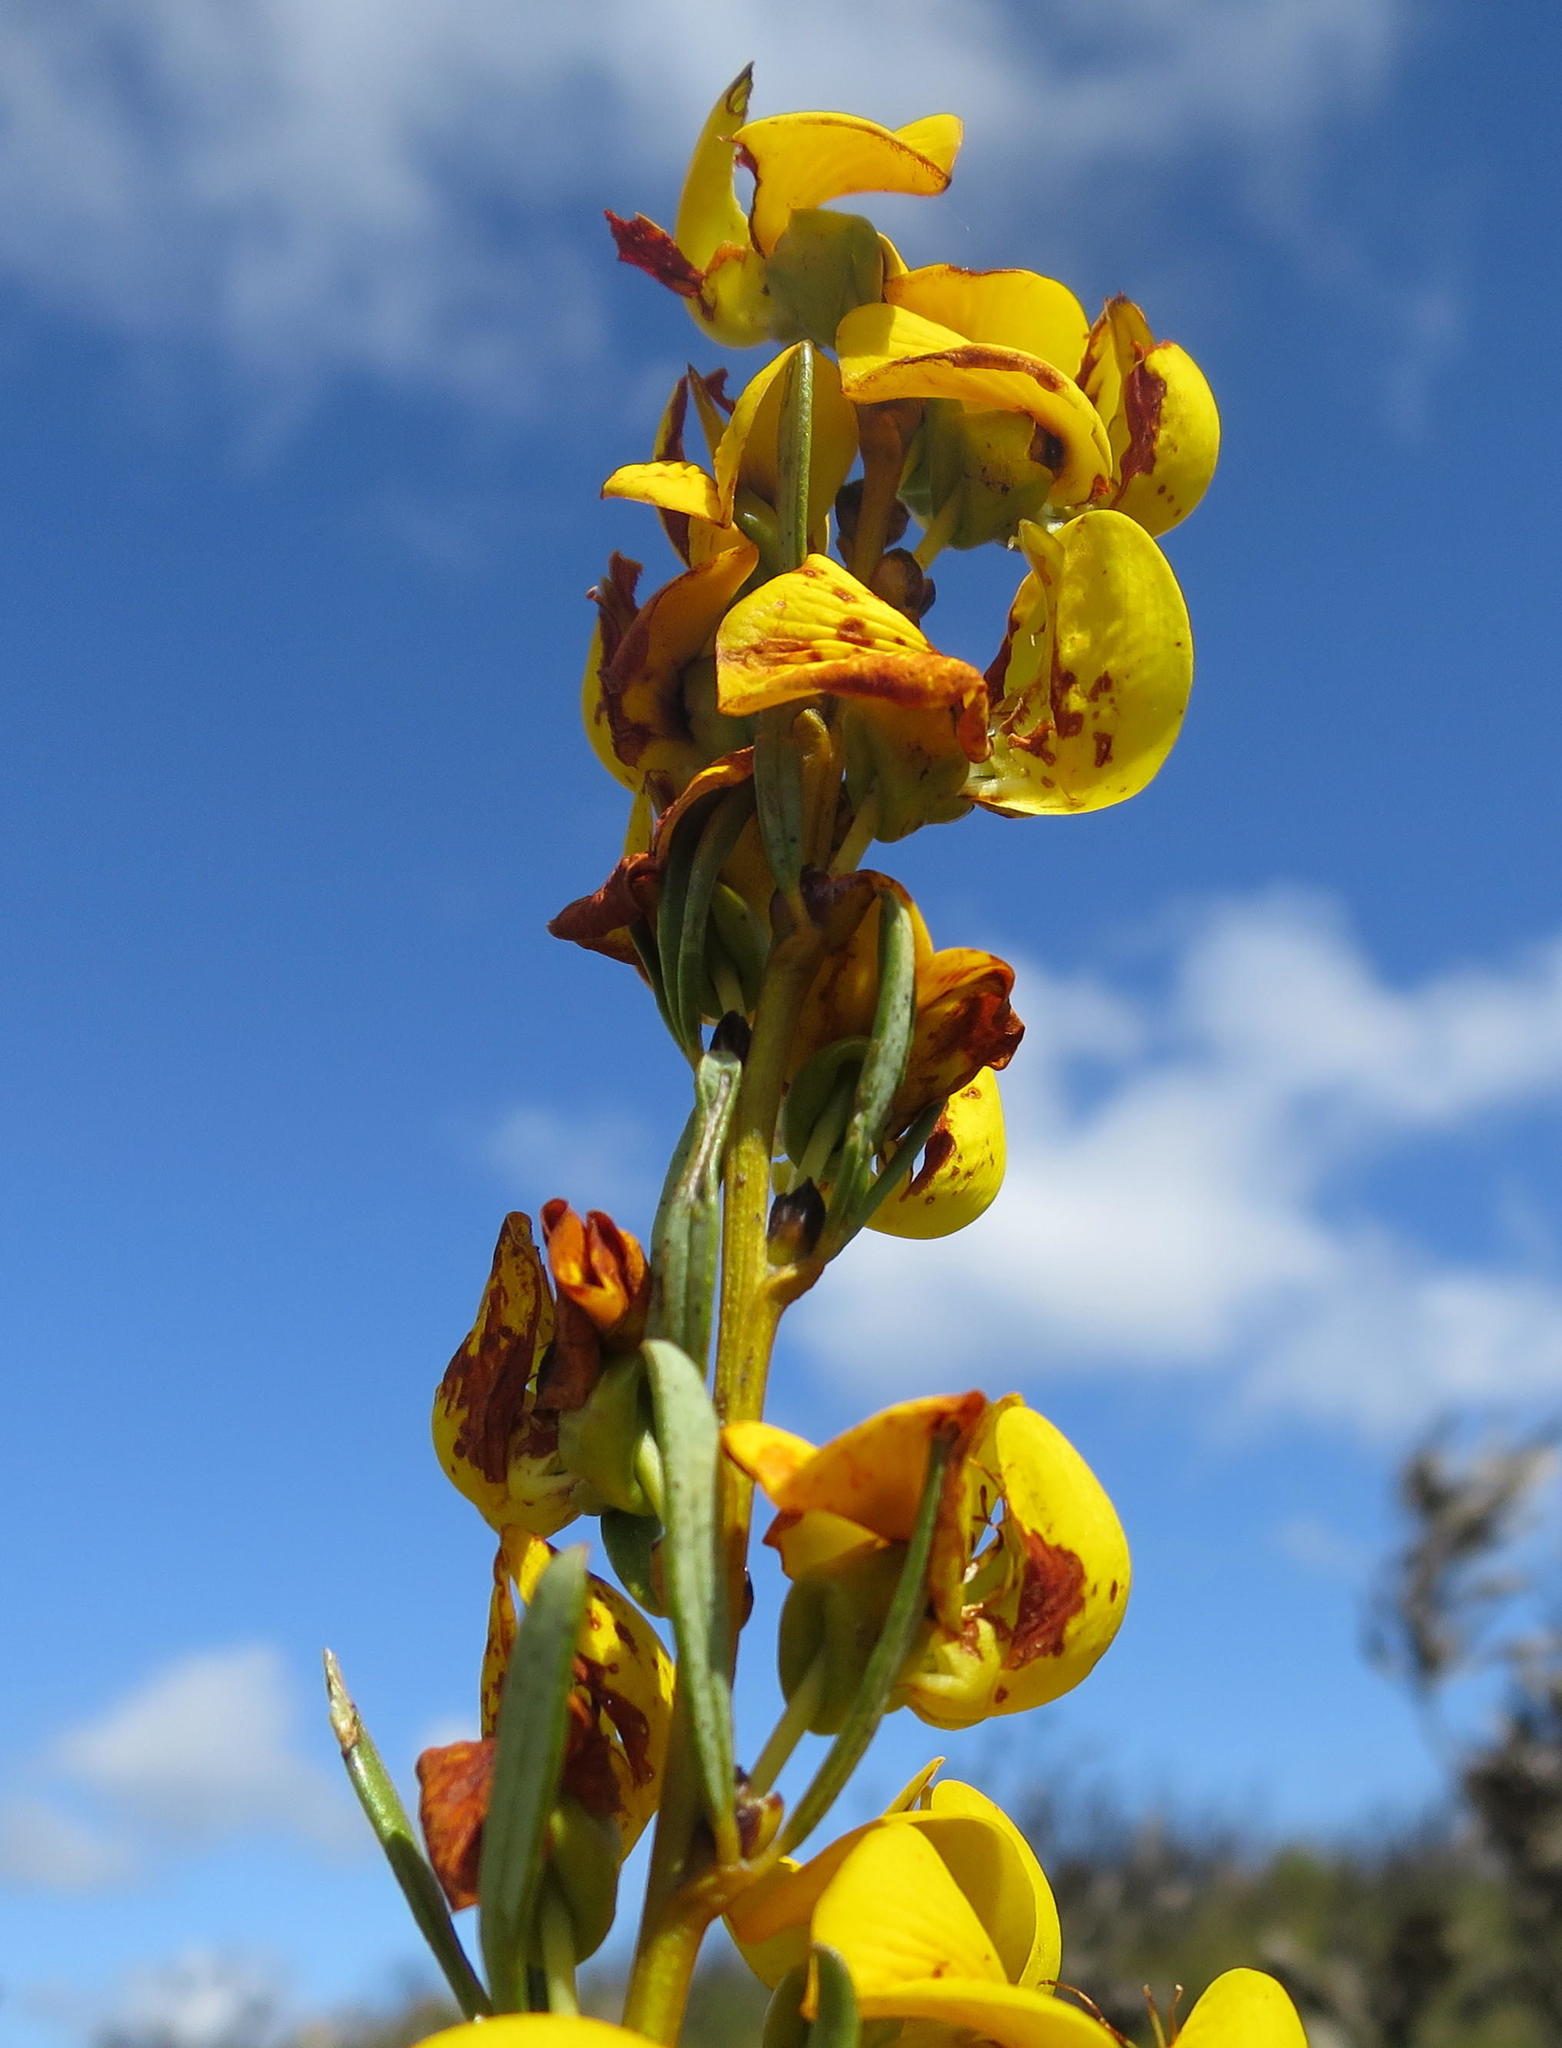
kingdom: Plantae
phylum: Tracheophyta
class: Magnoliopsida
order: Fabales
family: Fabaceae
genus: Cyclopia
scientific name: Cyclopia intermedia
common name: Mountain tea
